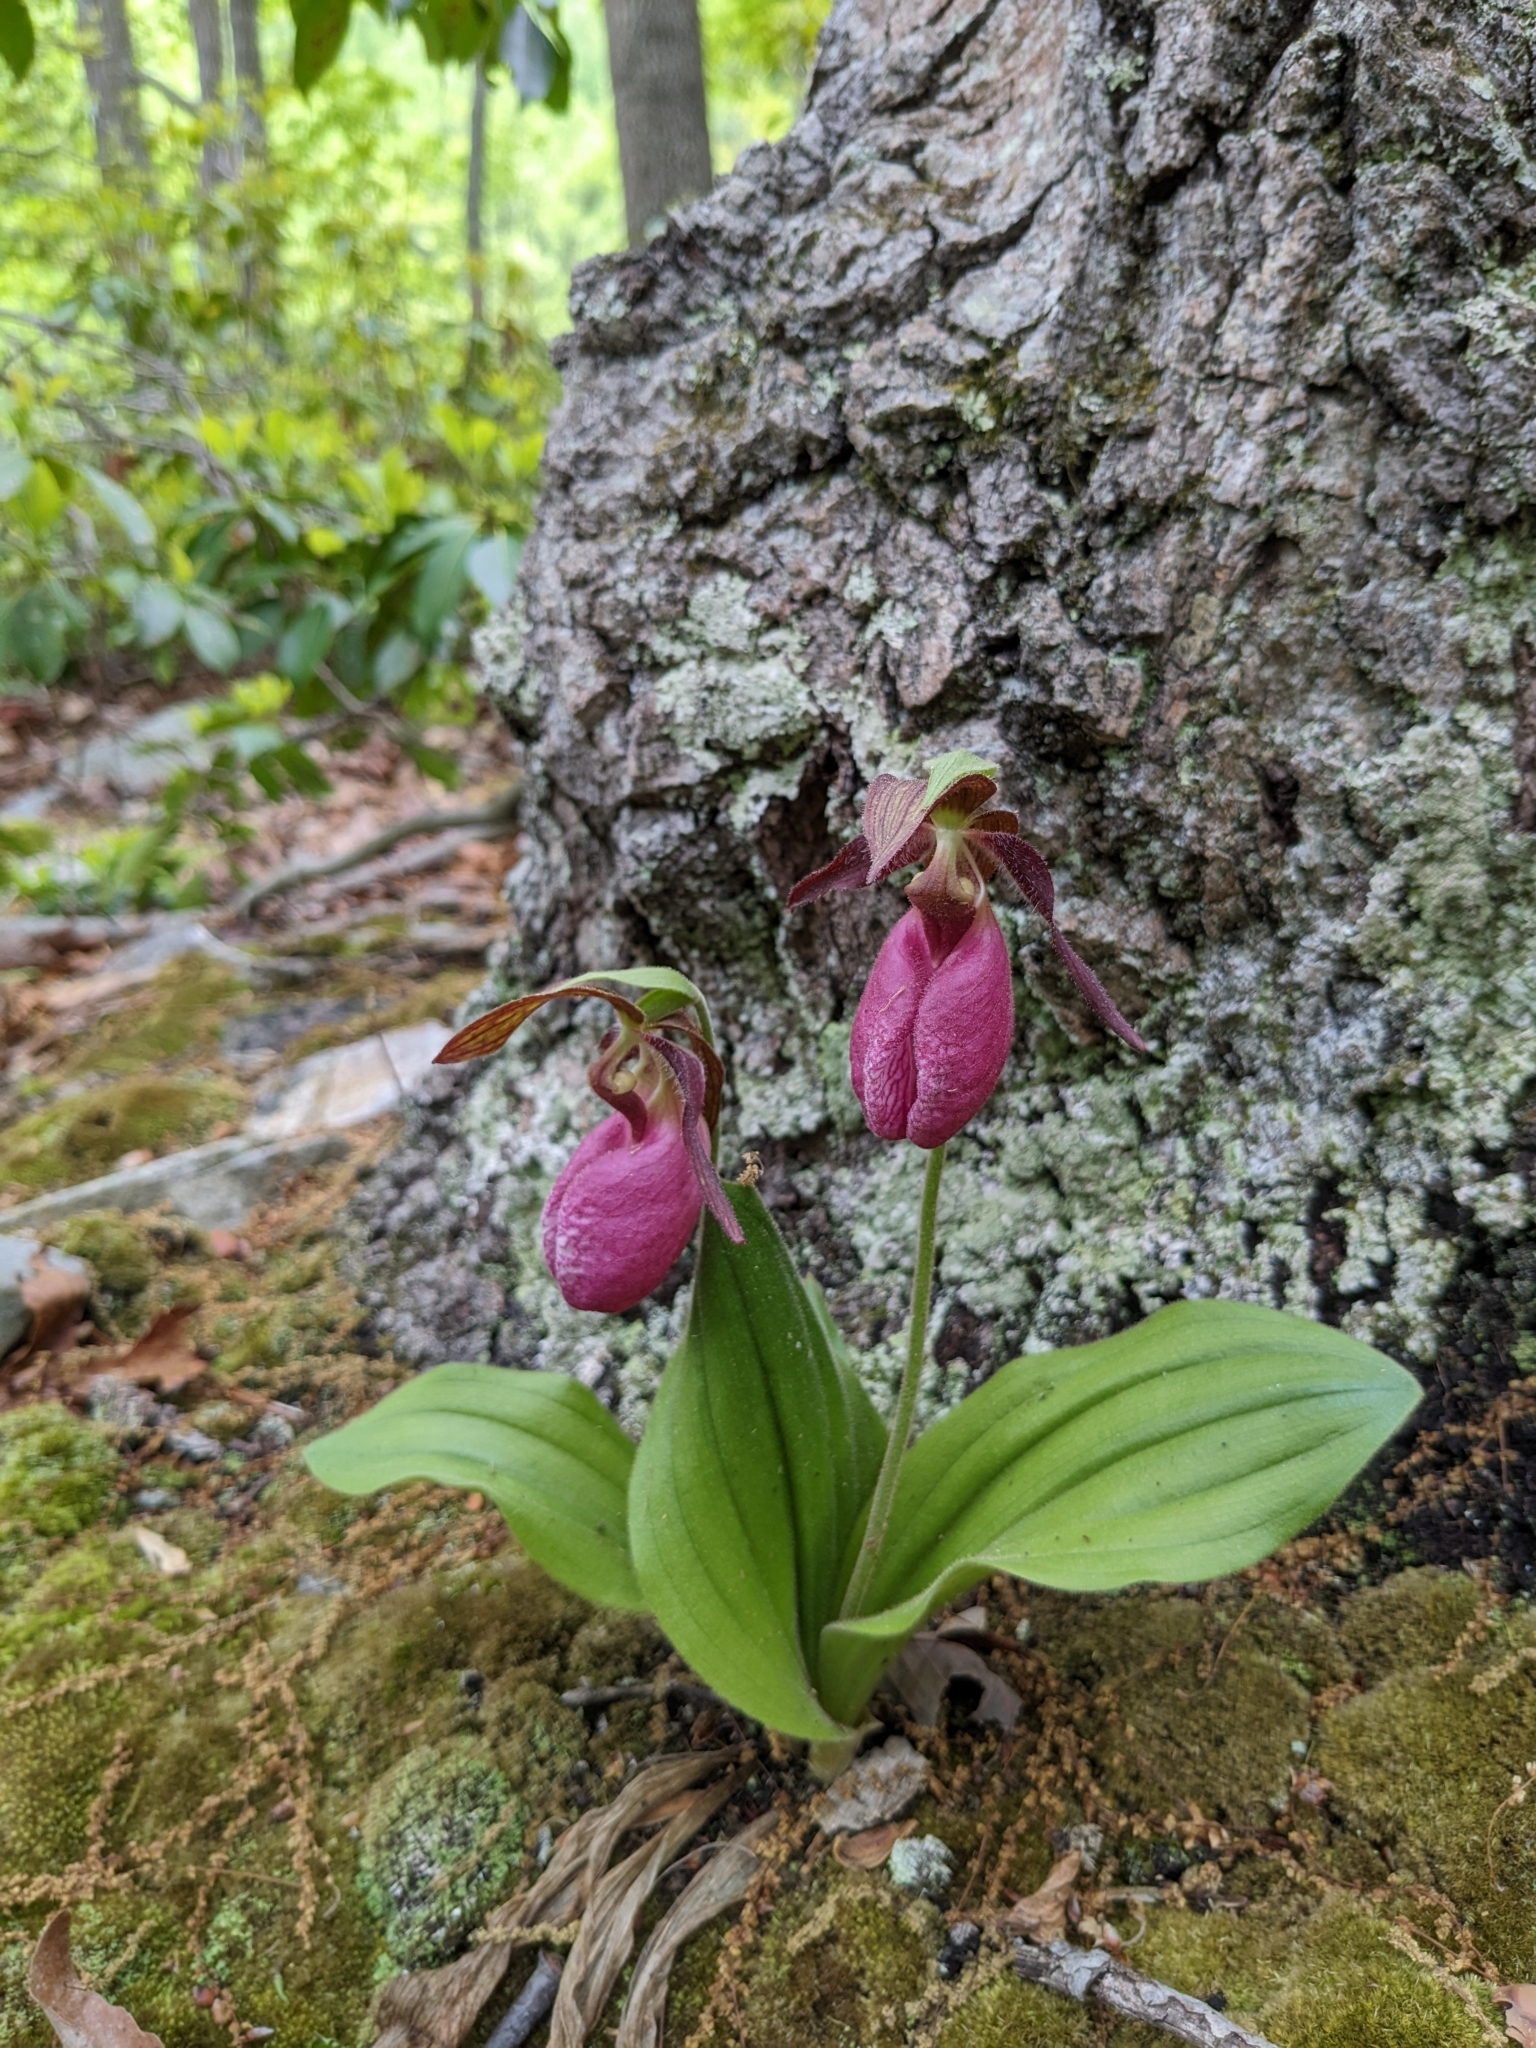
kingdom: Plantae
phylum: Tracheophyta
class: Liliopsida
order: Asparagales
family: Orchidaceae
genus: Cypripedium
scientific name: Cypripedium acaule
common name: Pink lady's-slipper
